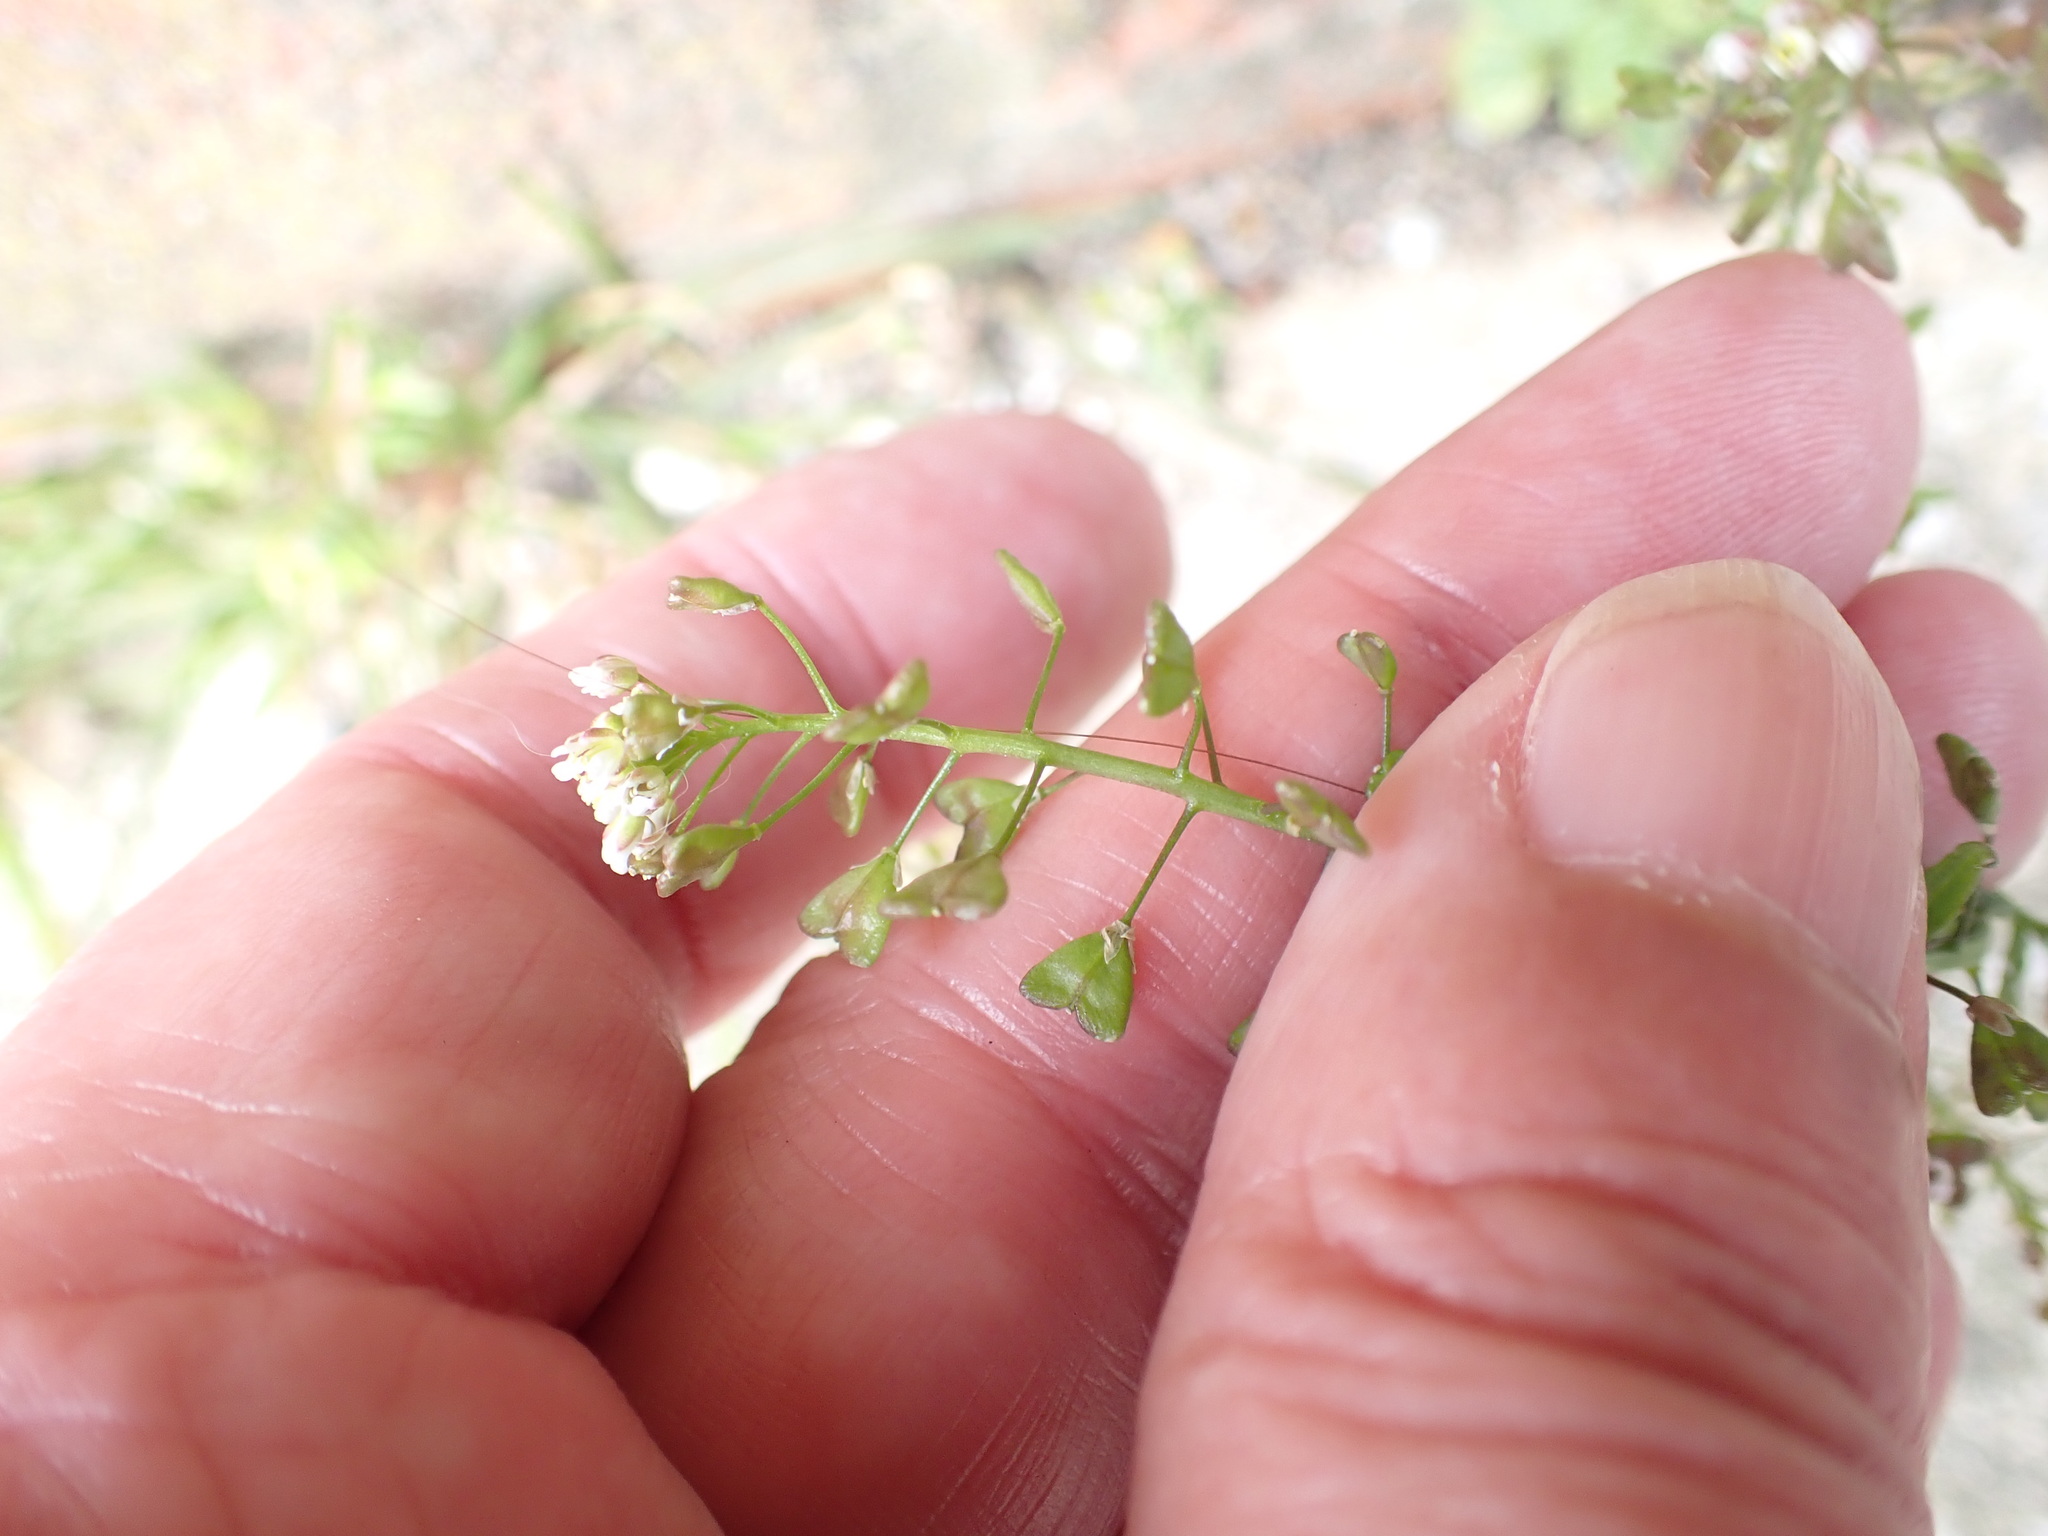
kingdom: Plantae
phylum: Tracheophyta
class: Magnoliopsida
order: Brassicales
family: Brassicaceae
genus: Capsella
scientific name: Capsella bursa-pastoris
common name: Shepherd's purse
